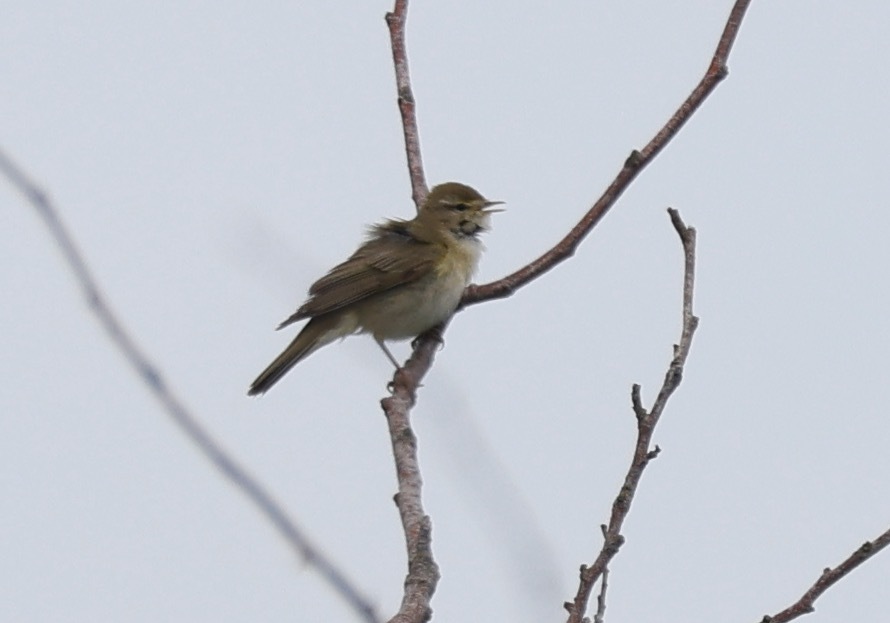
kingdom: Animalia
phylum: Chordata
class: Aves
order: Passeriformes
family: Phylloscopidae
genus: Phylloscopus
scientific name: Phylloscopus trochilus
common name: Willow warbler
